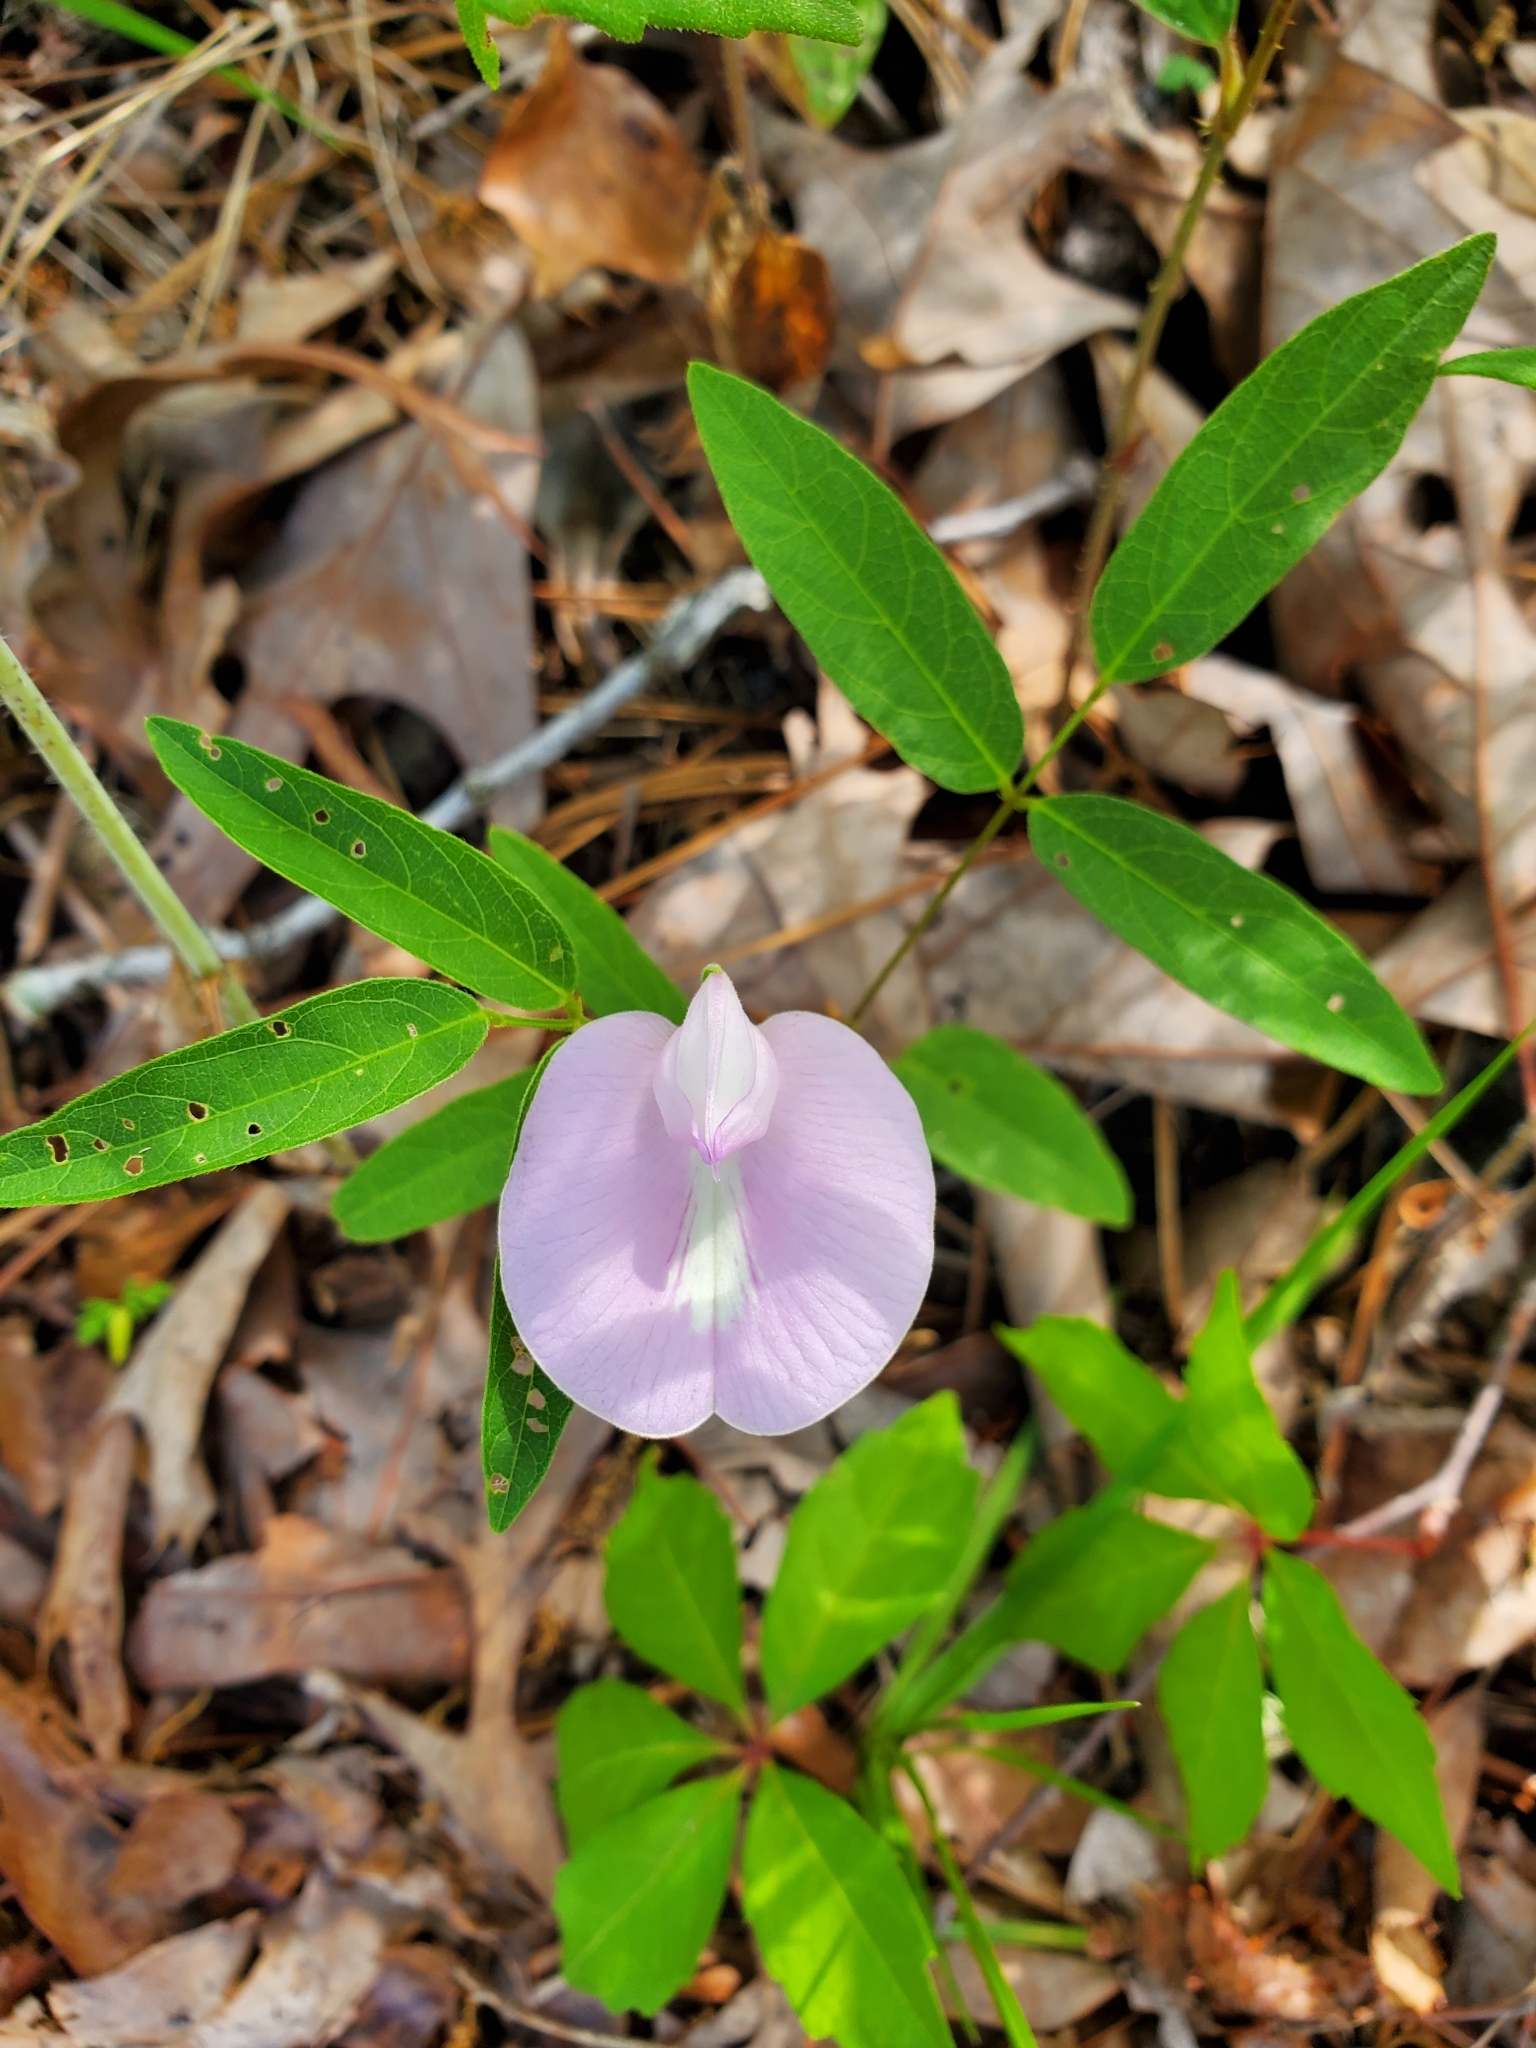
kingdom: Plantae
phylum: Tracheophyta
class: Magnoliopsida
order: Fabales
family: Fabaceae
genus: Centrosema
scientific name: Centrosema virginianum
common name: Butterfly-pea
